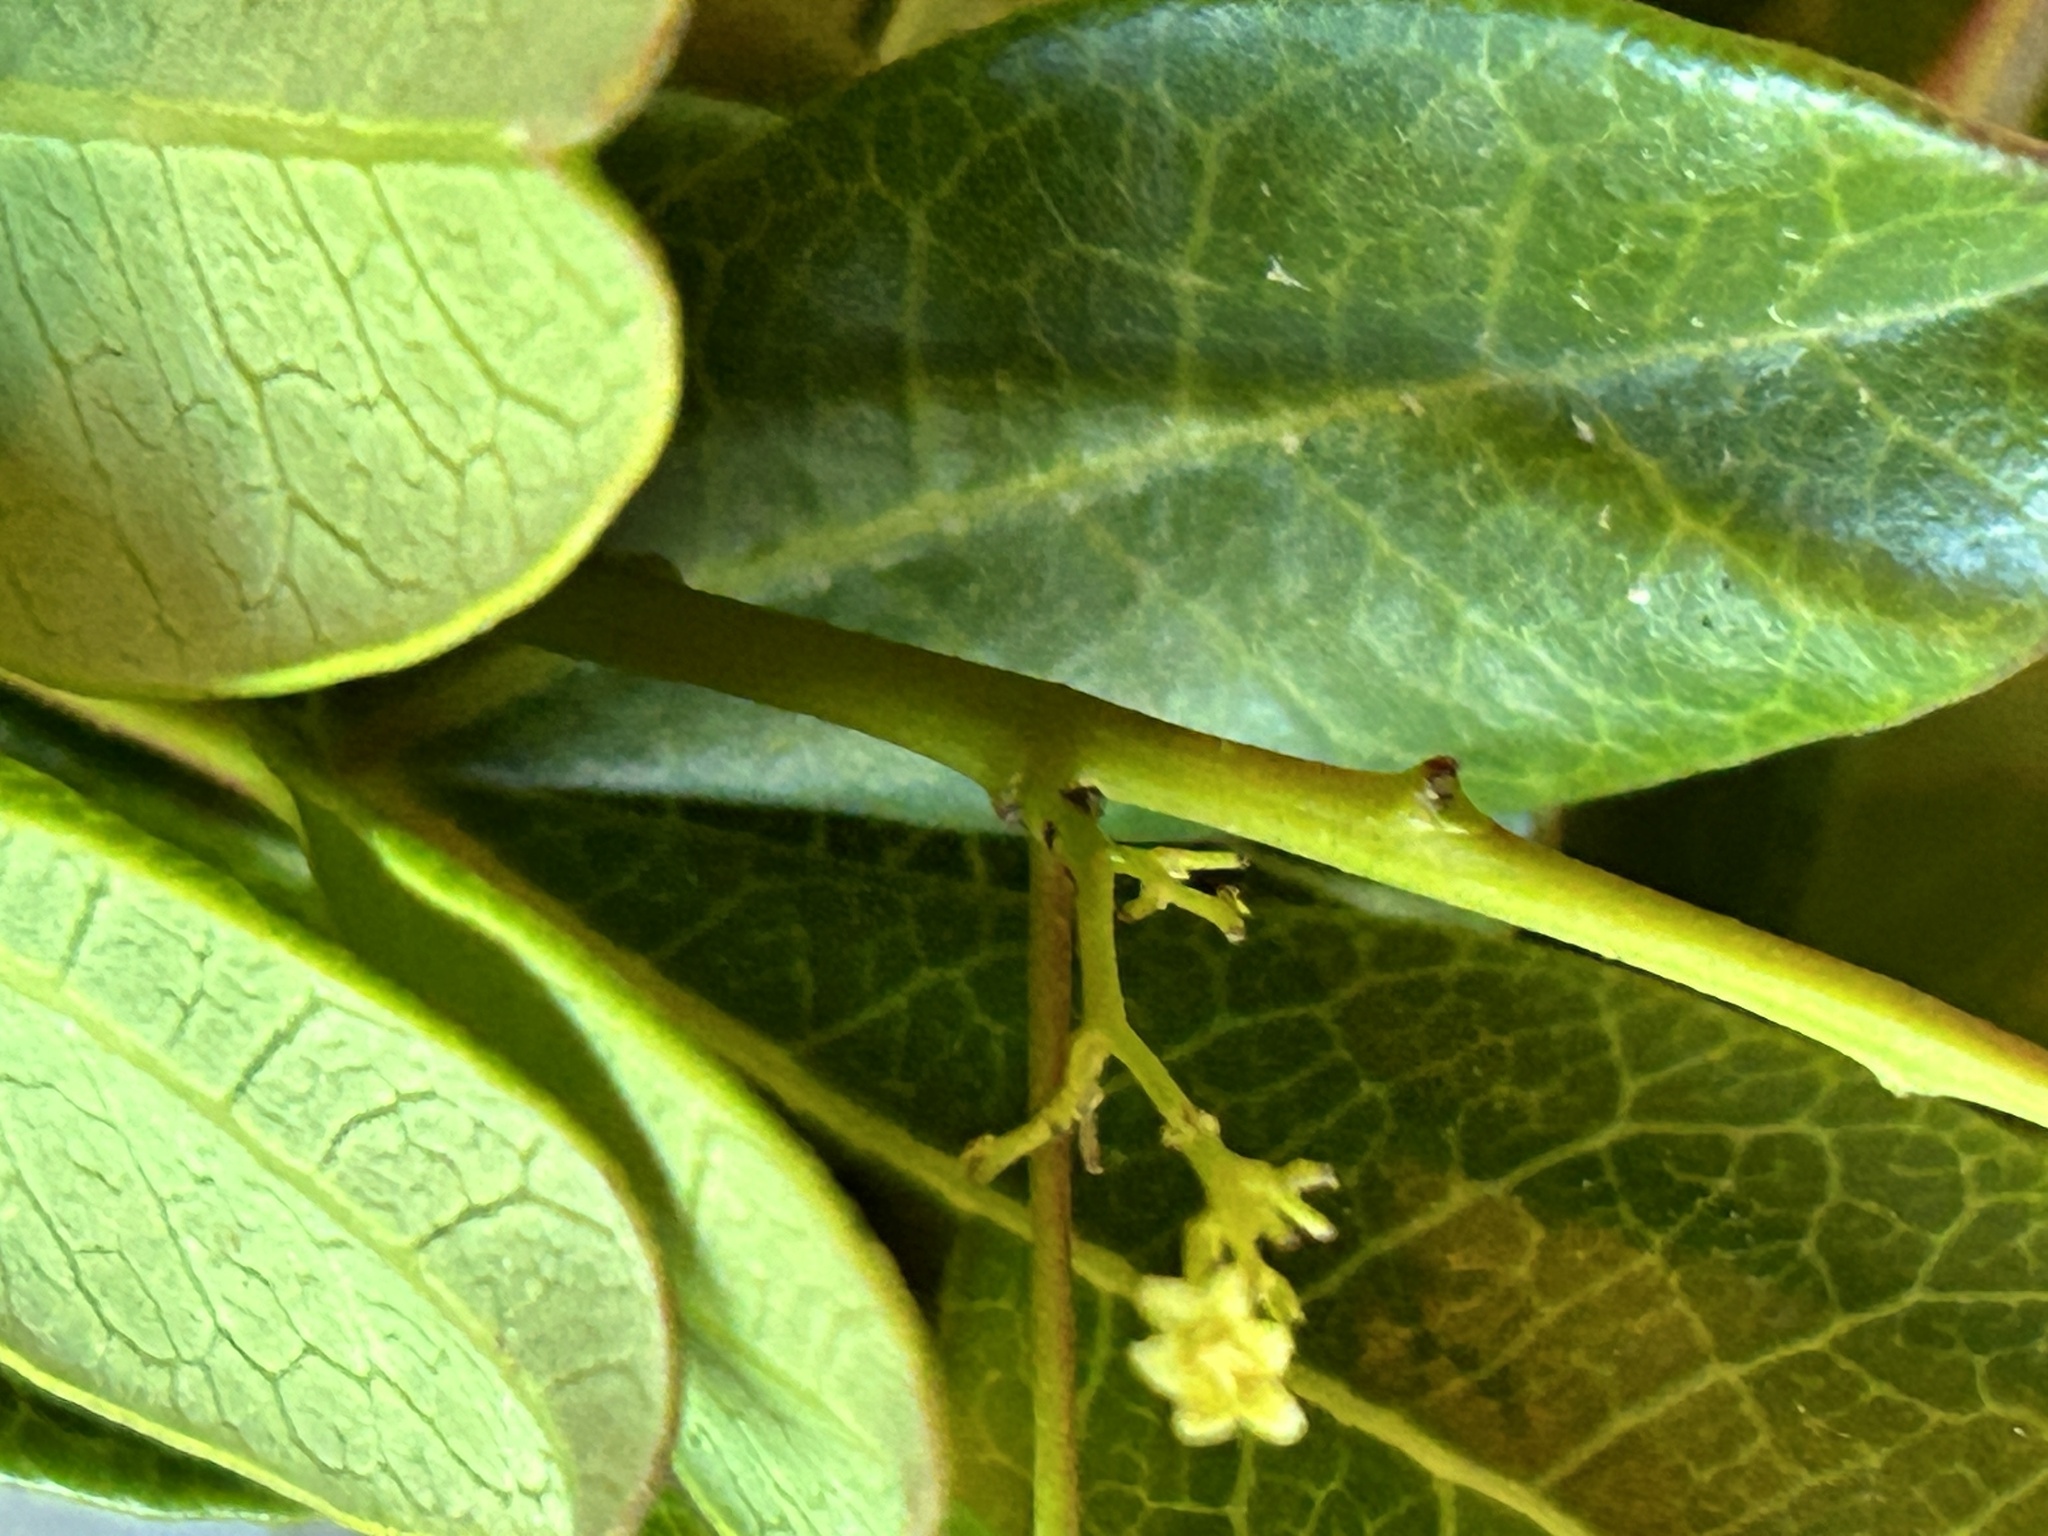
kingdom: Plantae
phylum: Tracheophyta
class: Magnoliopsida
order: Sapindales
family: Anacardiaceae
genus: Searsia
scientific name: Searsia laevigata
